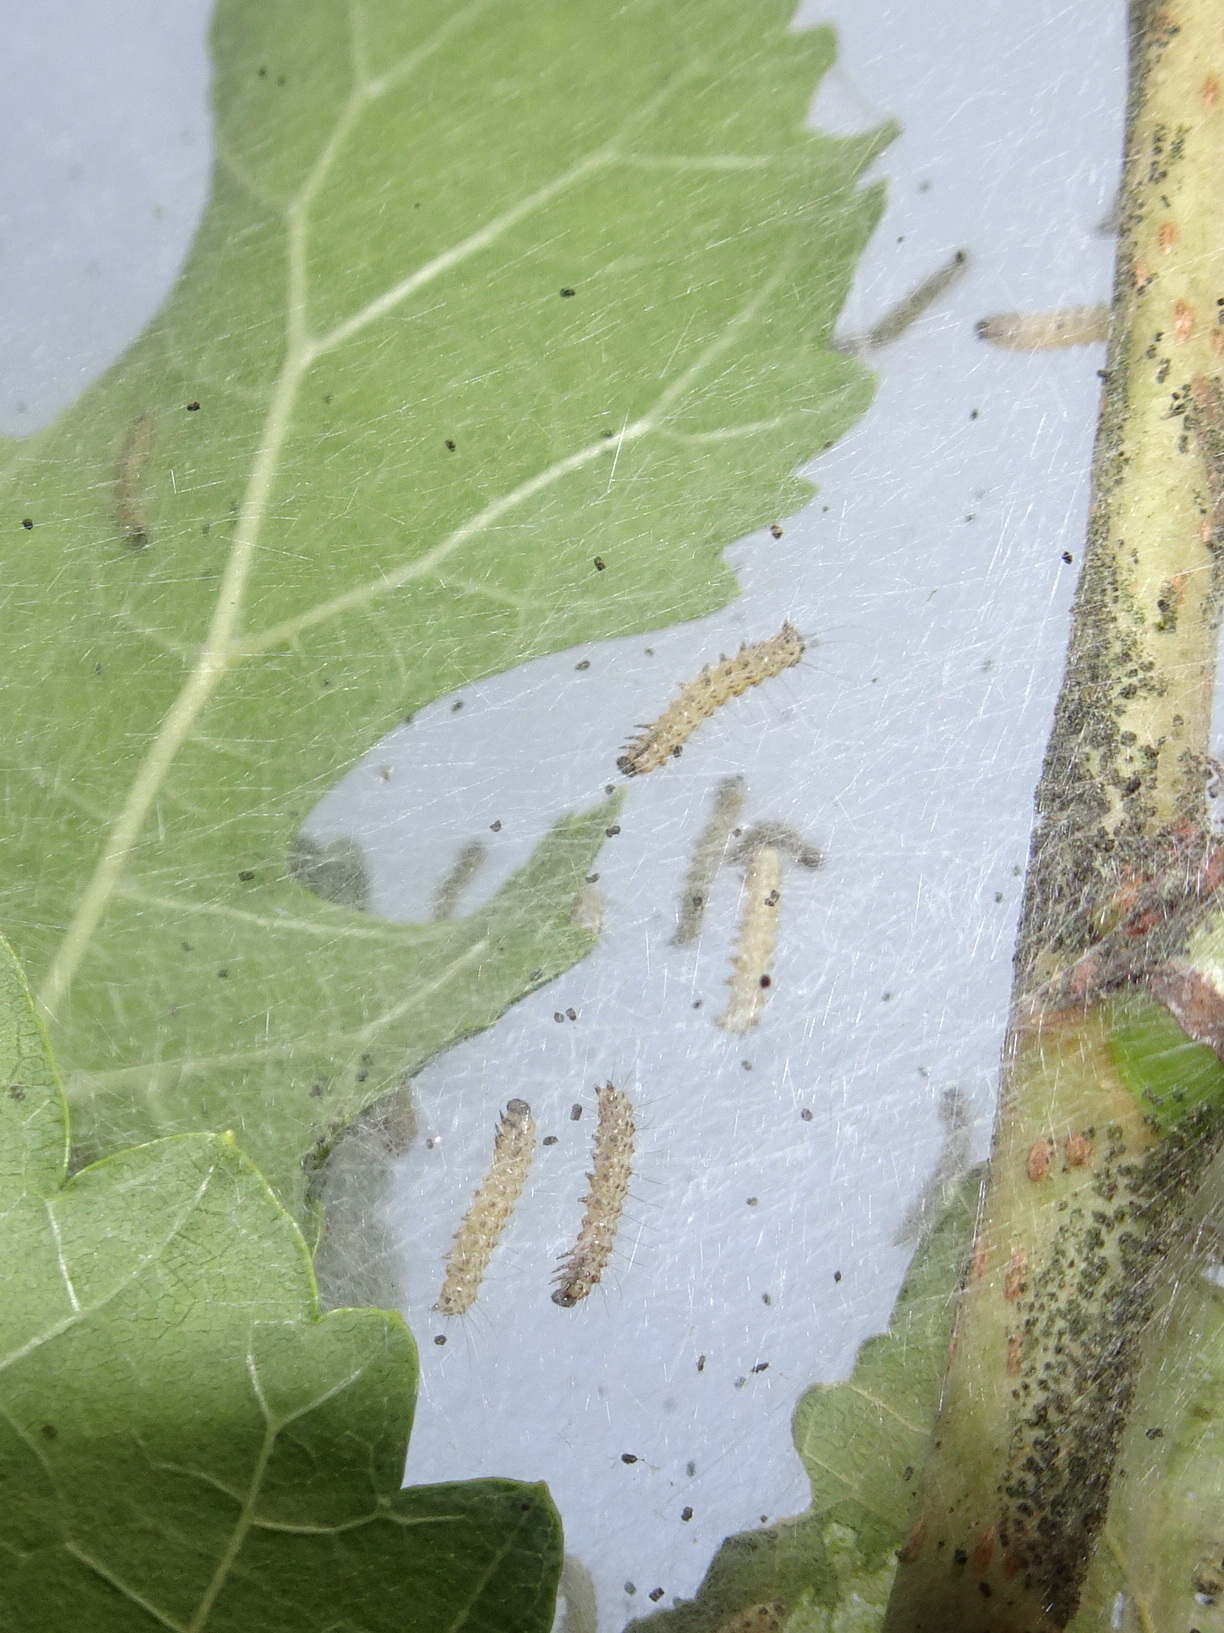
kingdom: Animalia
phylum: Arthropoda
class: Insecta
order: Lepidoptera
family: Erebidae
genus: Hyphantria
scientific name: Hyphantria cunea
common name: American white moth
